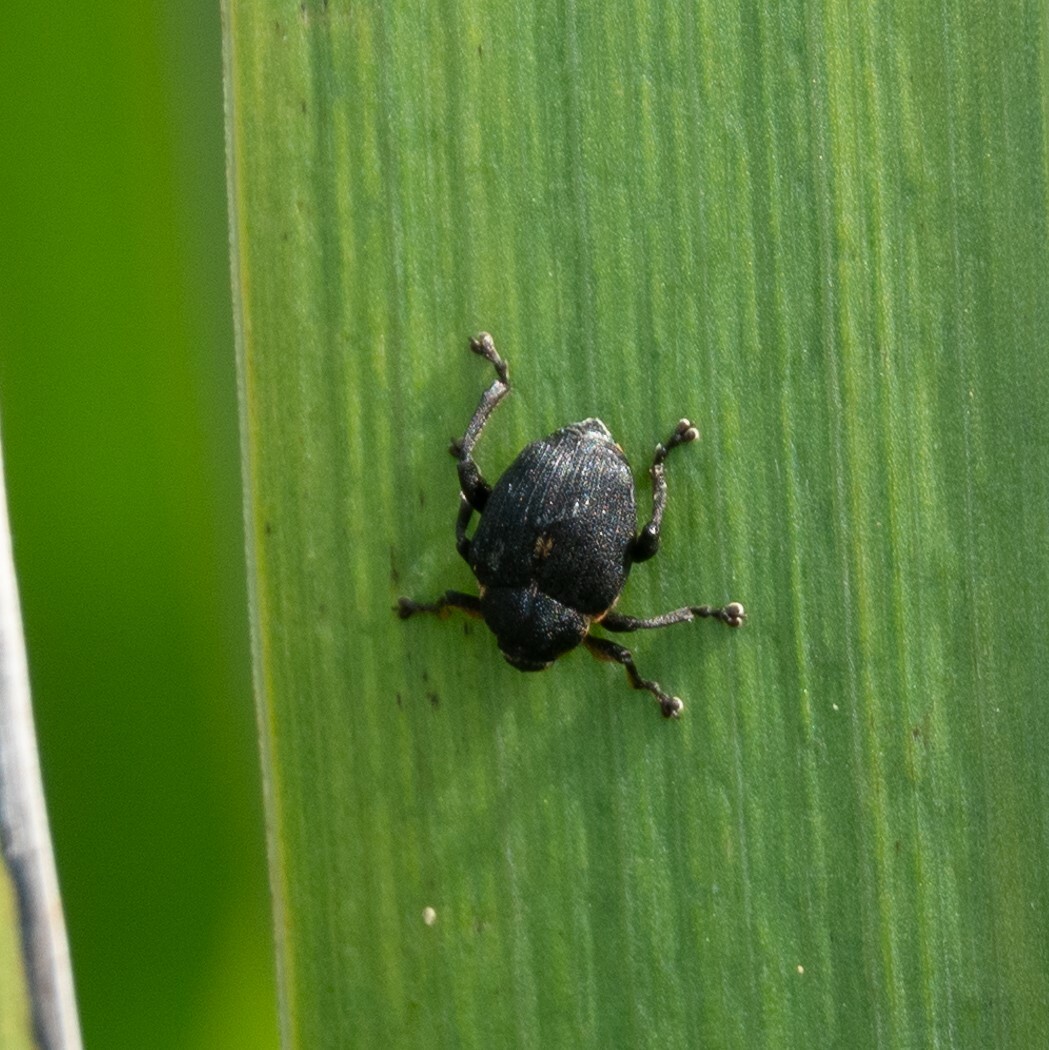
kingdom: Animalia
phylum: Arthropoda
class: Insecta
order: Coleoptera
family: Curculionidae
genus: Mononychus
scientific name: Mononychus punctumalbum
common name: Iris weevil
